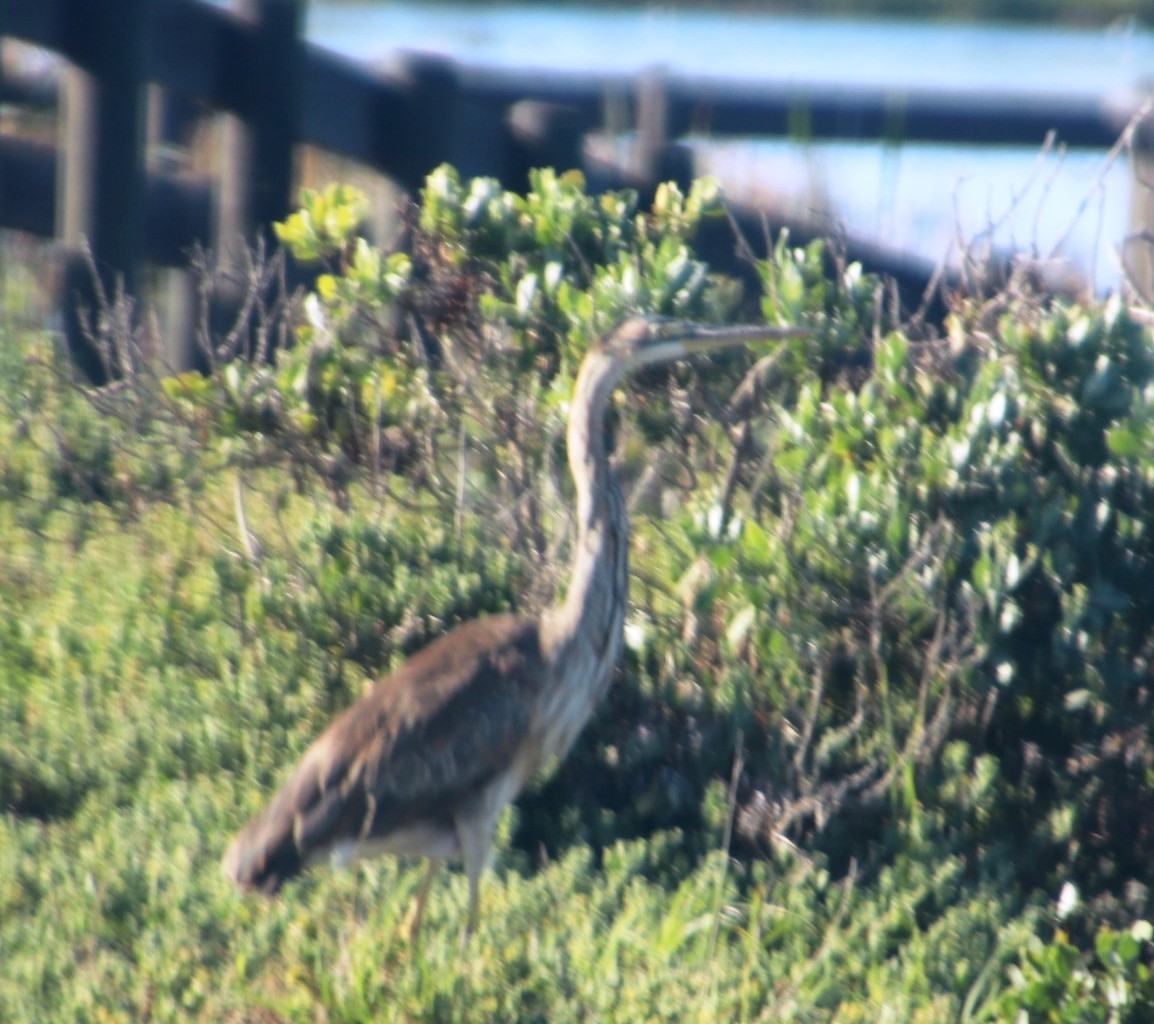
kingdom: Animalia
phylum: Chordata
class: Aves
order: Pelecaniformes
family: Ardeidae
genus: Ardea
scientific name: Ardea purpurea
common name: Purple heron
